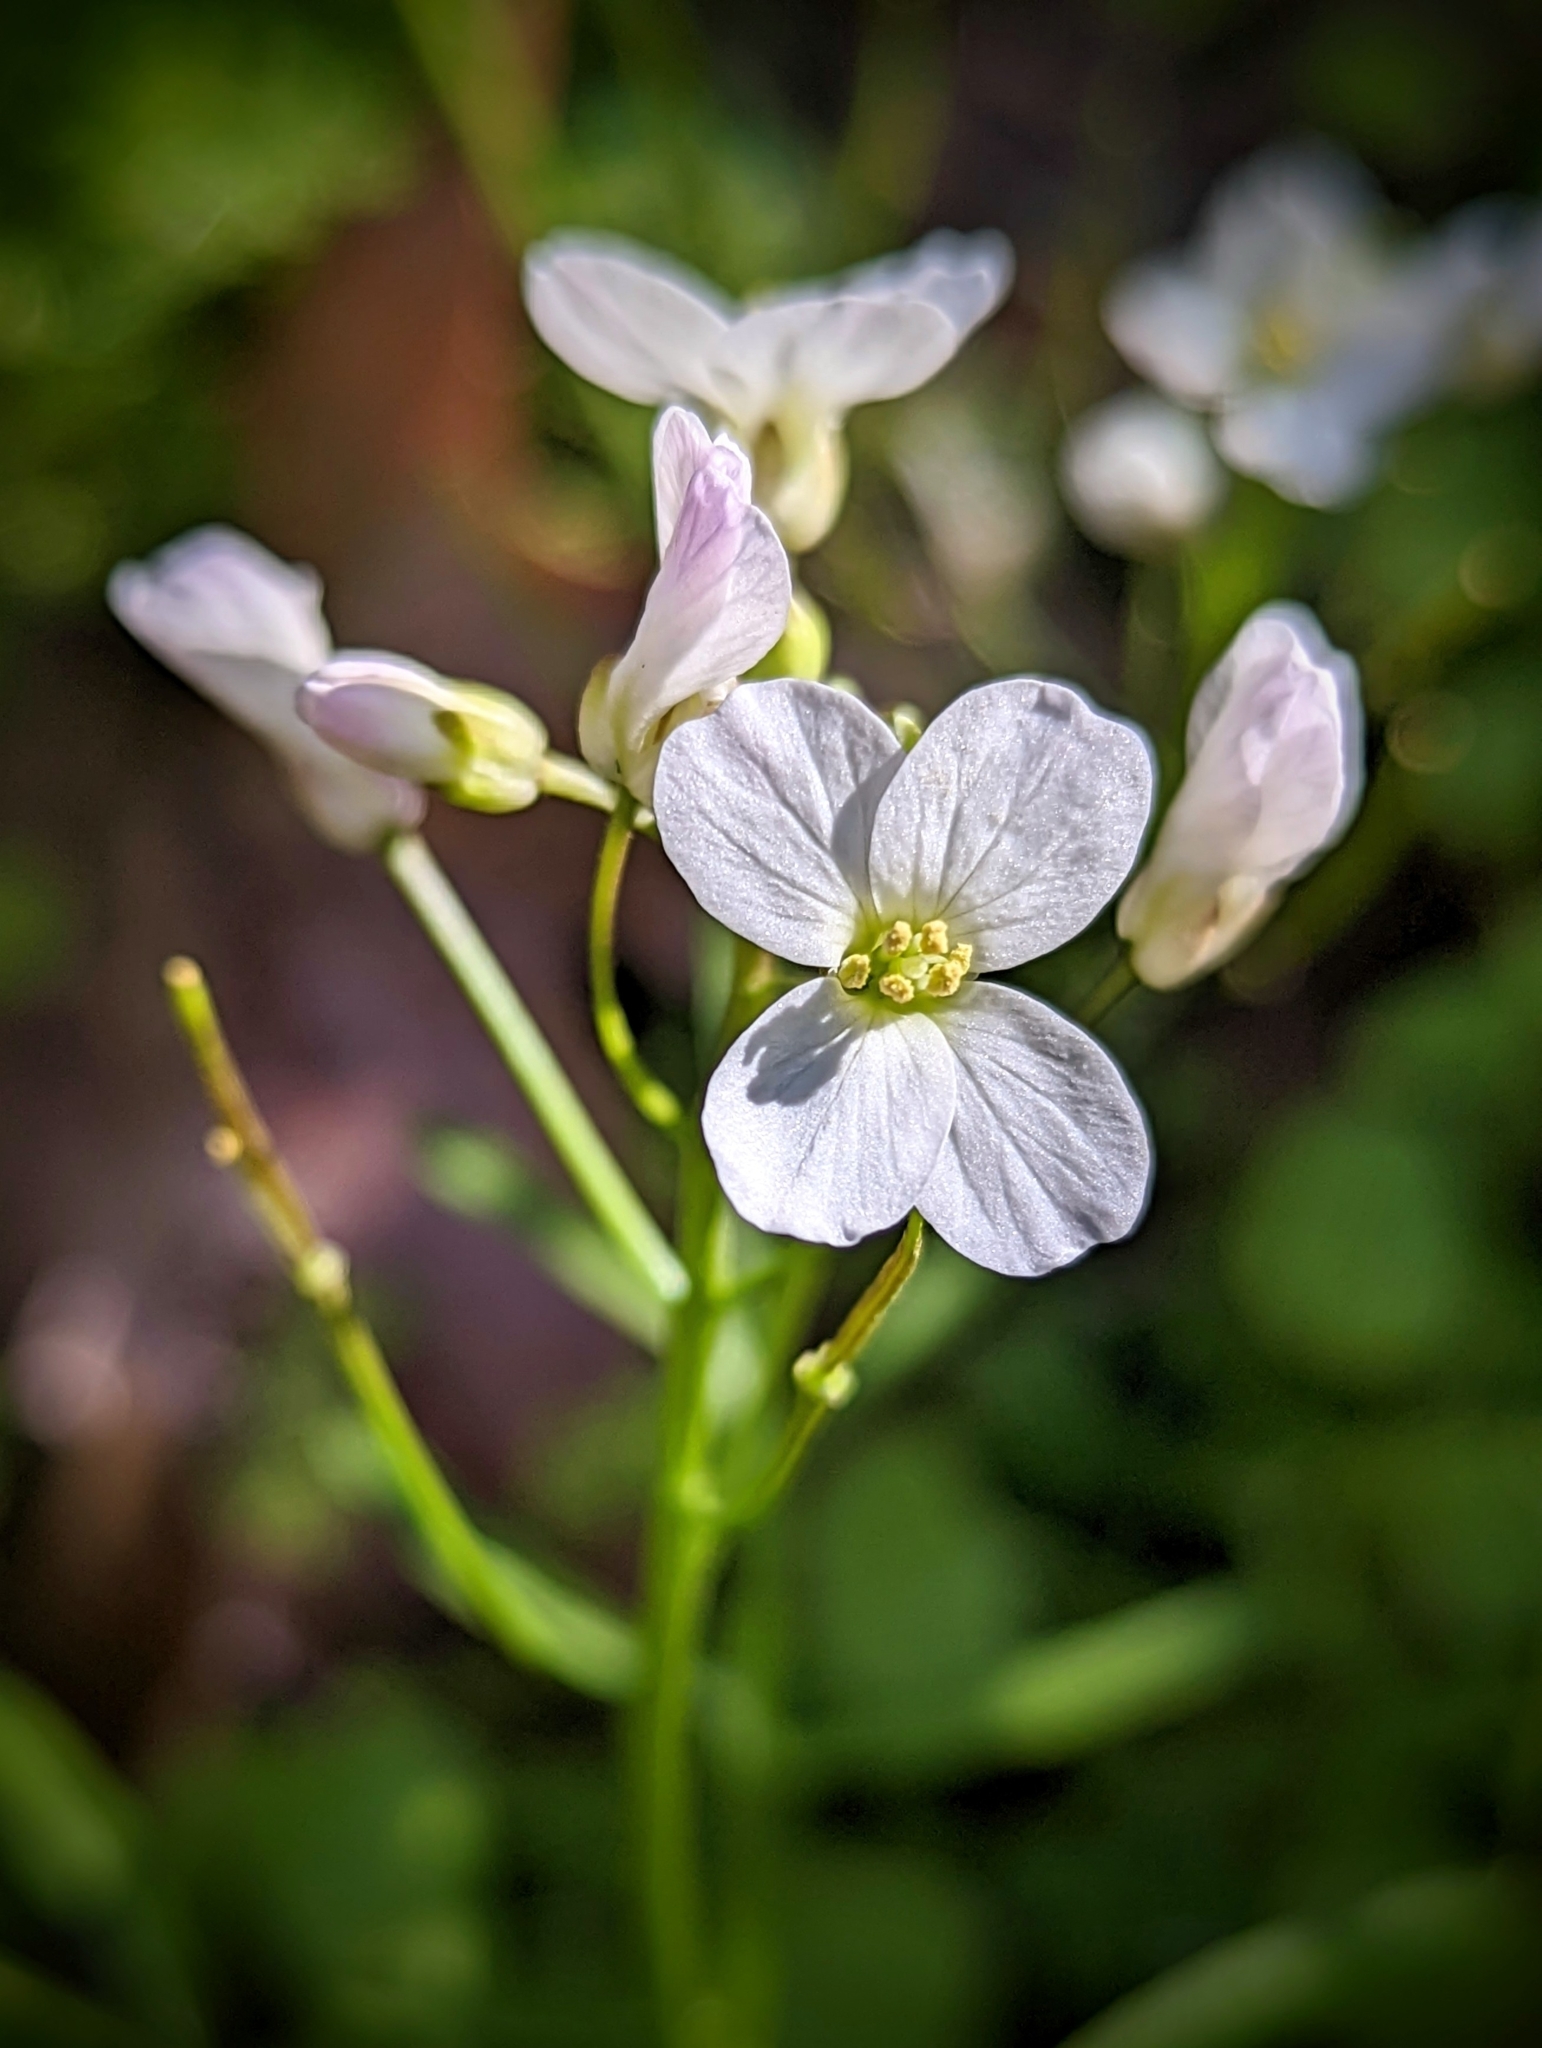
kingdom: Plantae
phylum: Tracheophyta
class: Magnoliopsida
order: Brassicales
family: Brassicaceae
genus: Cardamine
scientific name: Cardamine californica
